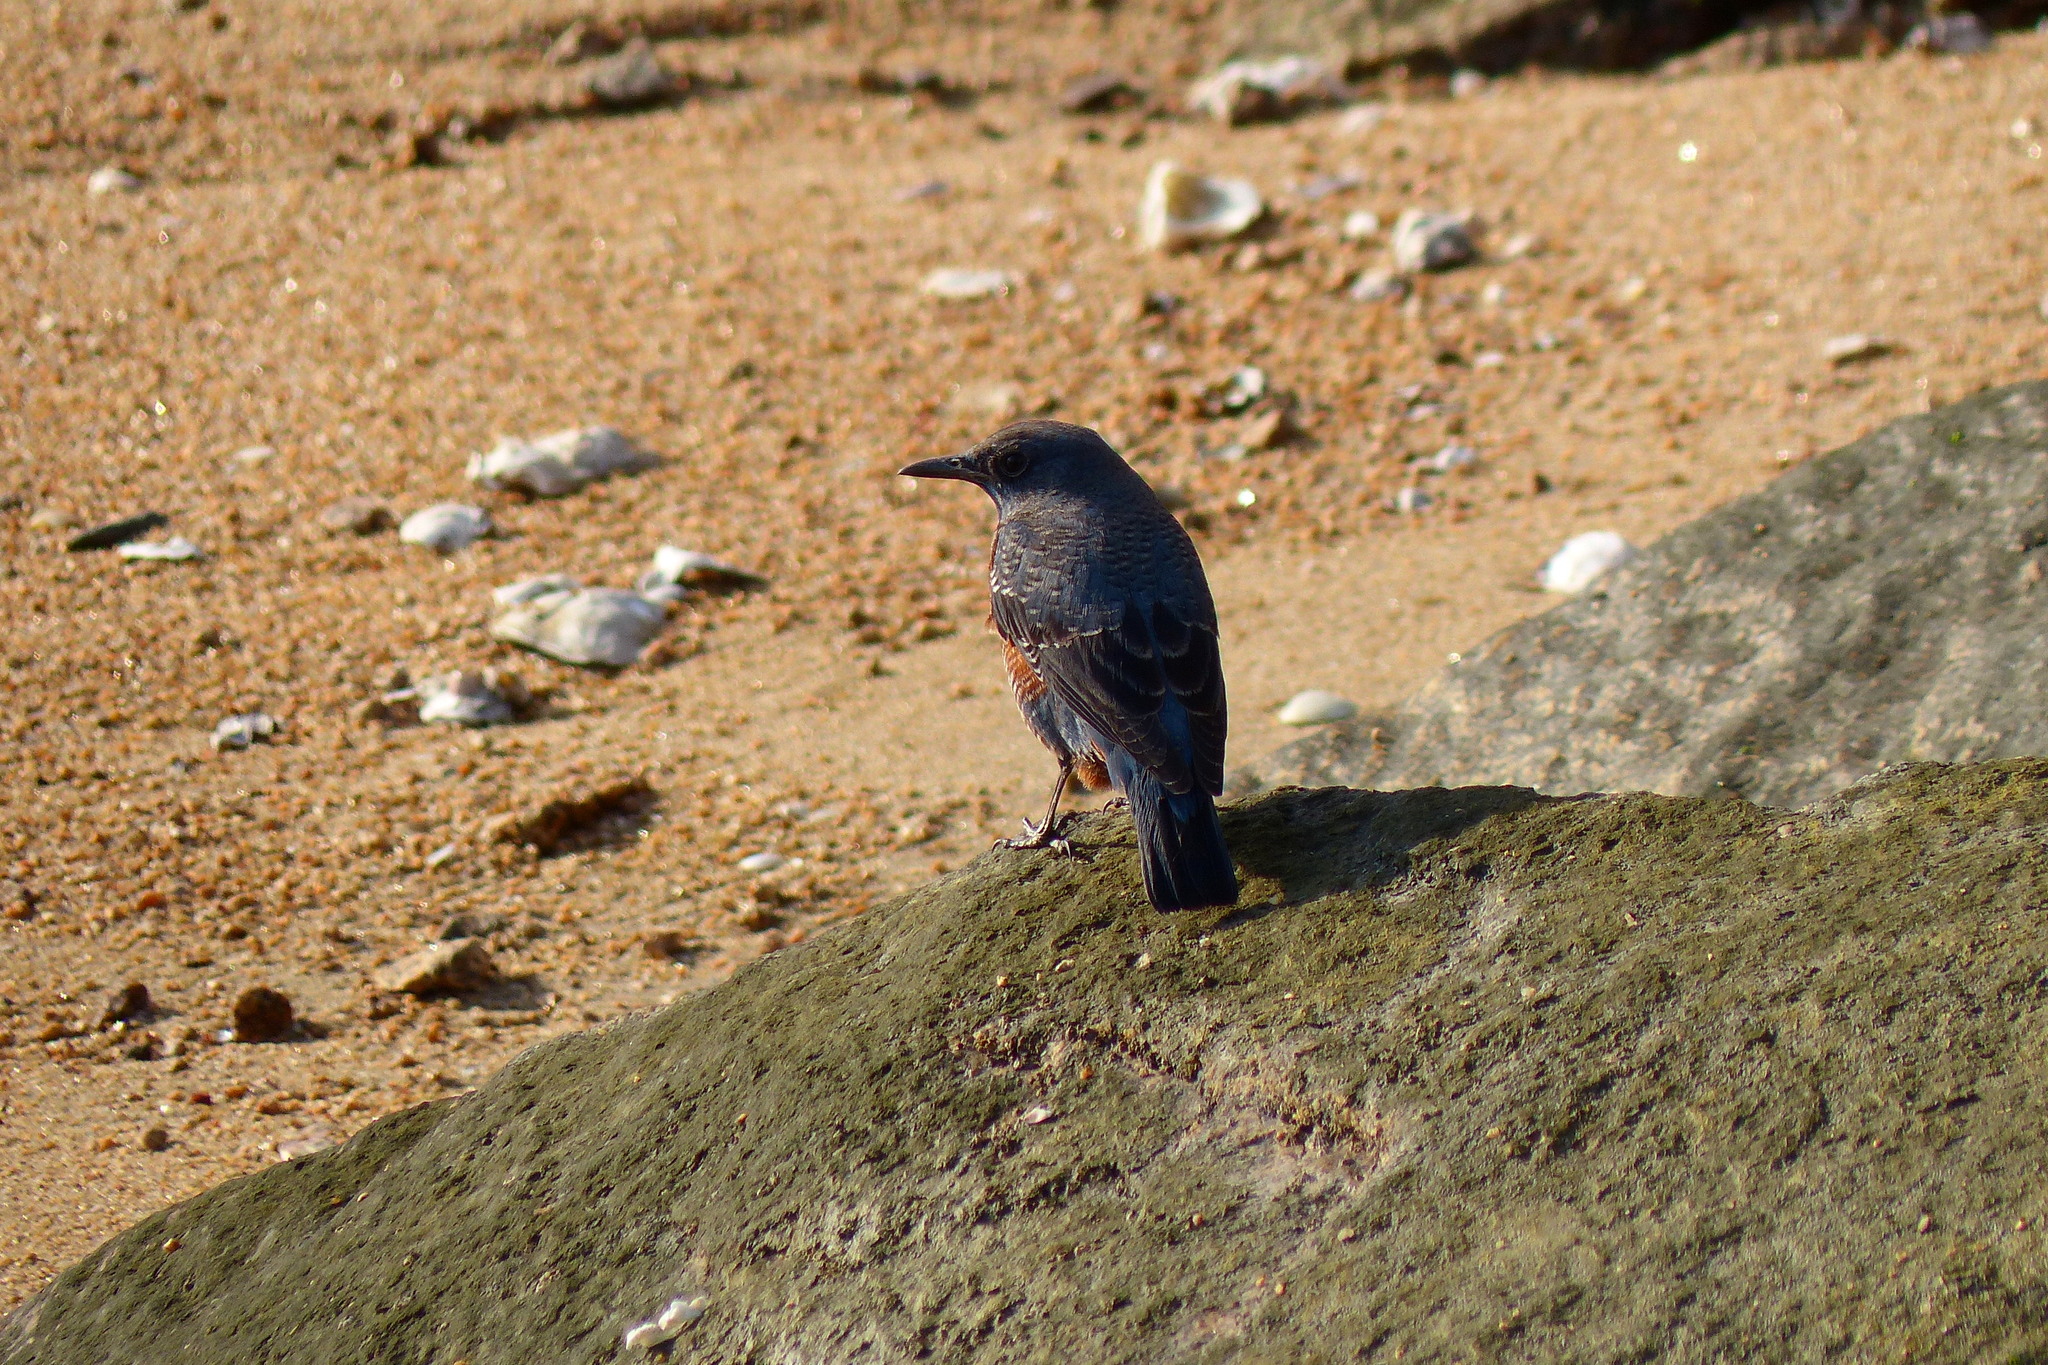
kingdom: Animalia
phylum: Chordata
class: Aves
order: Passeriformes
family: Muscicapidae
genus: Monticola
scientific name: Monticola solitarius
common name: Blue rock thrush
